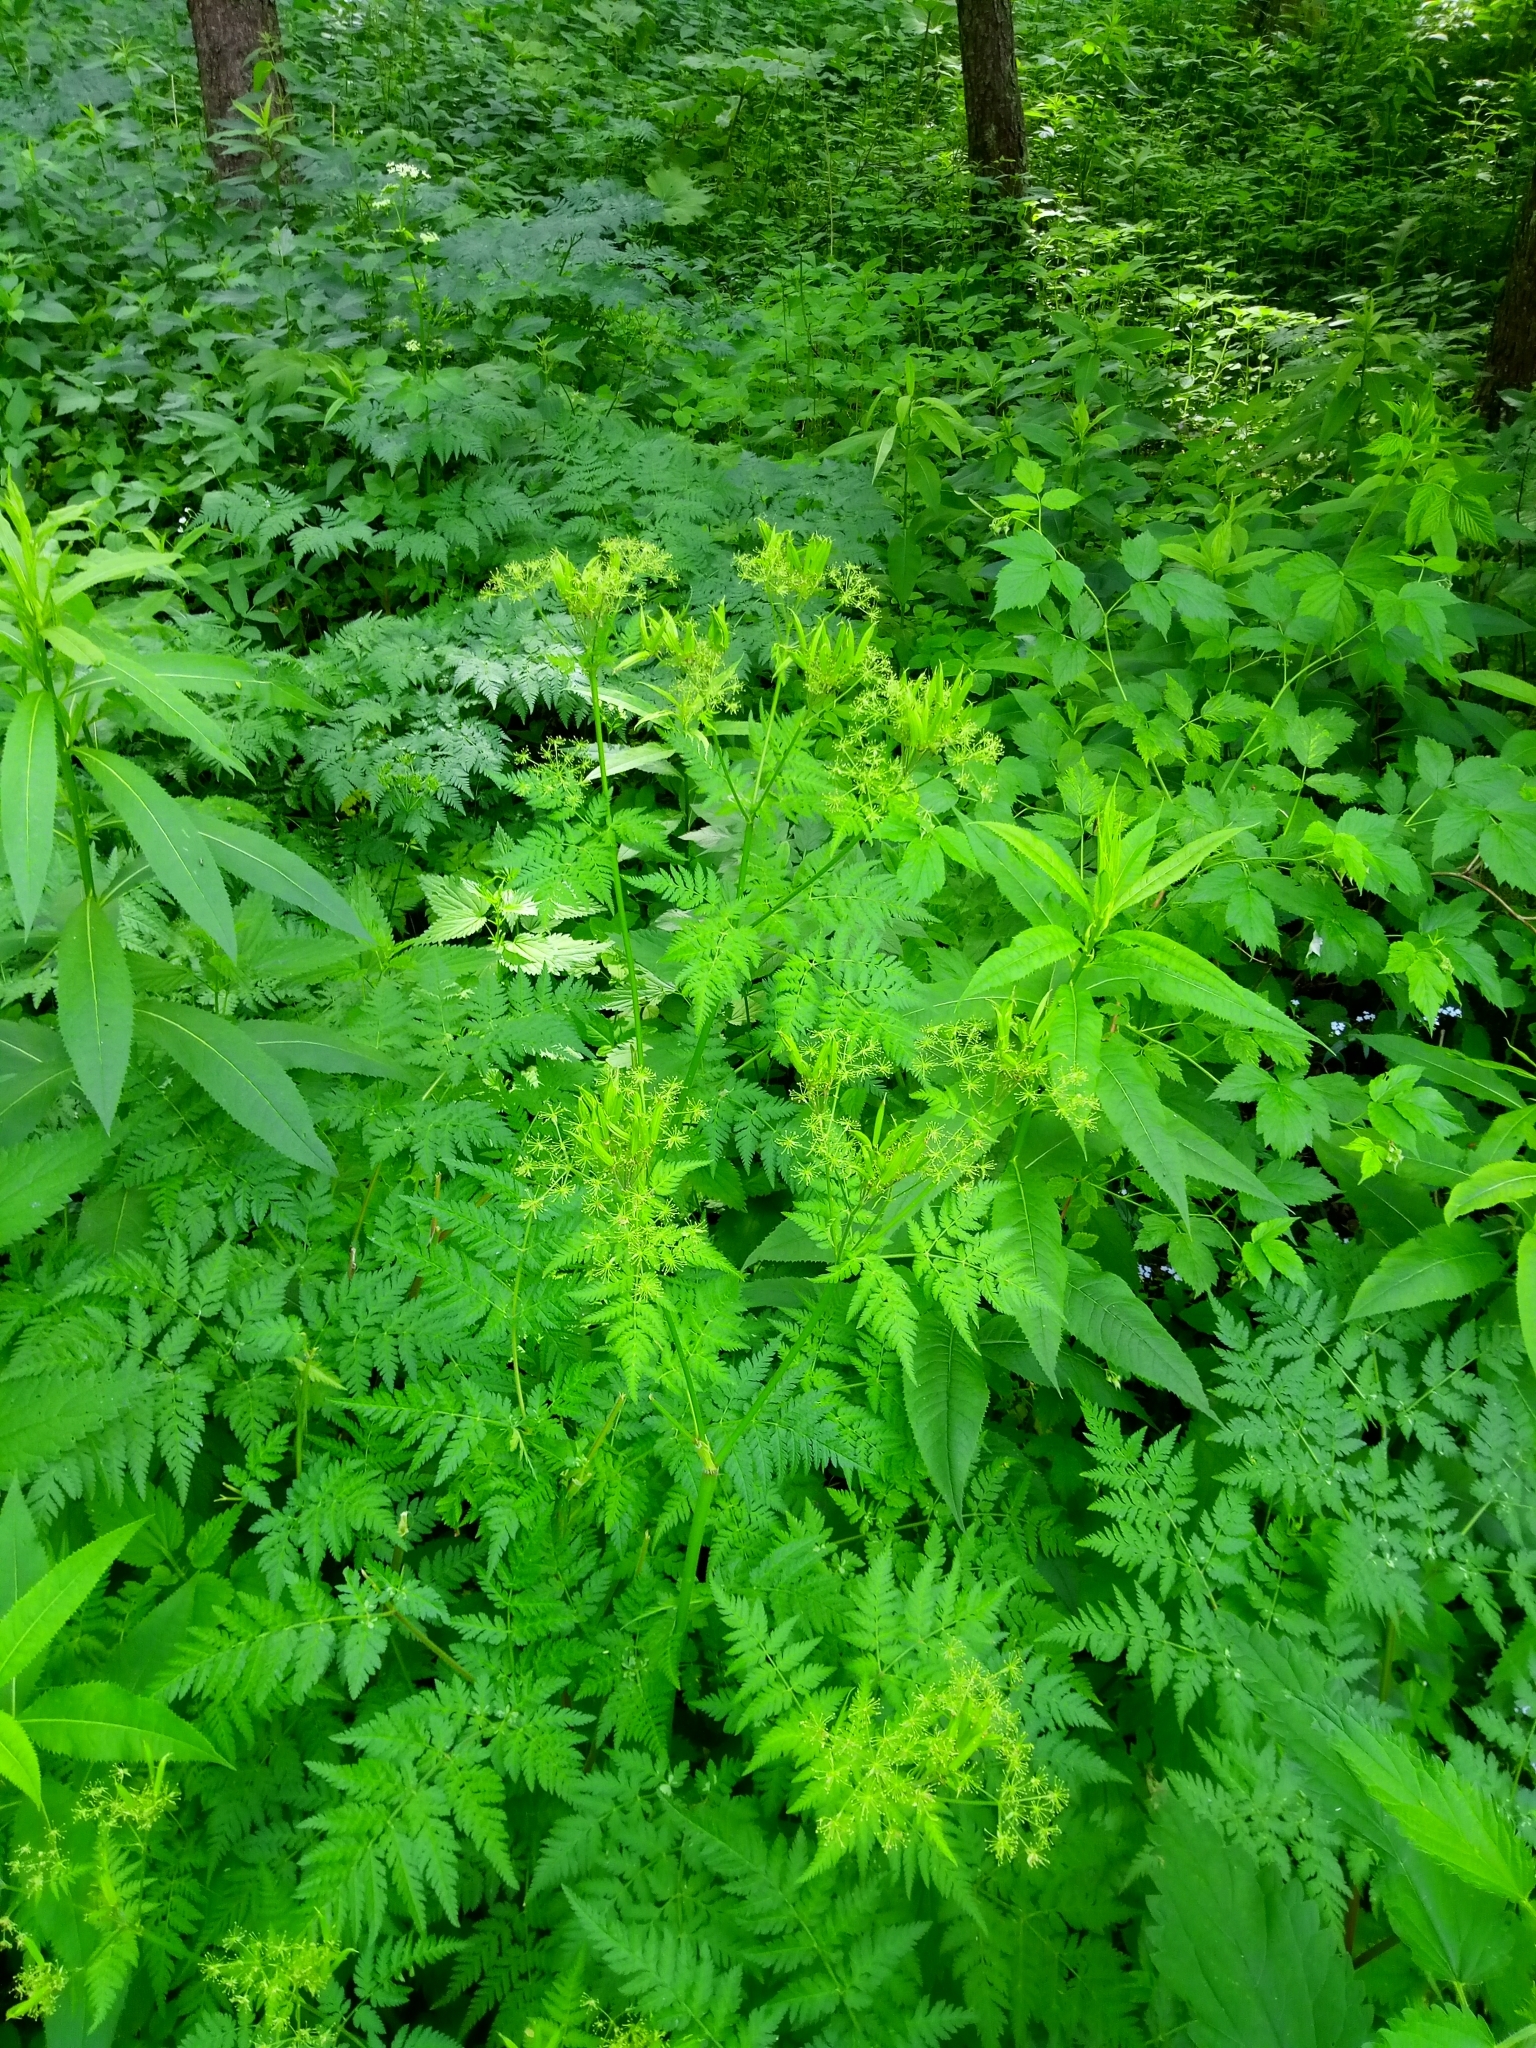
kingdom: Plantae
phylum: Tracheophyta
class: Magnoliopsida
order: Apiales
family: Apiaceae
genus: Myrrhis
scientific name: Myrrhis odorata
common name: Sweet cicely
